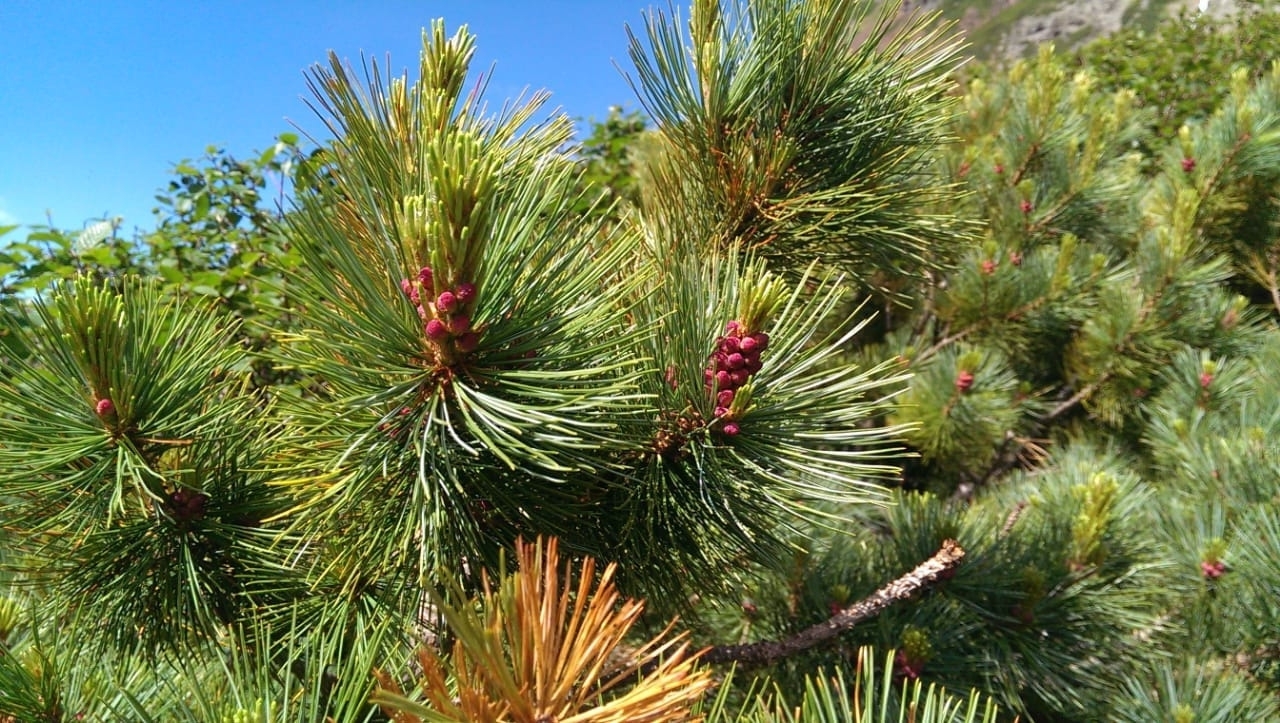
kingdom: Plantae
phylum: Tracheophyta
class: Pinopsida
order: Pinales
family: Pinaceae
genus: Pinus
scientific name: Pinus pumila
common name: Dwarf siberian pine
